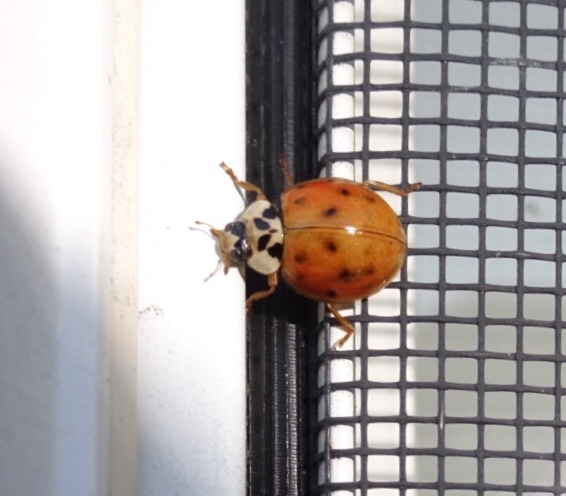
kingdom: Animalia
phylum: Arthropoda
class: Insecta
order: Coleoptera
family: Coccinellidae
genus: Harmonia
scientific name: Harmonia axyridis
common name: Harlequin ladybird
